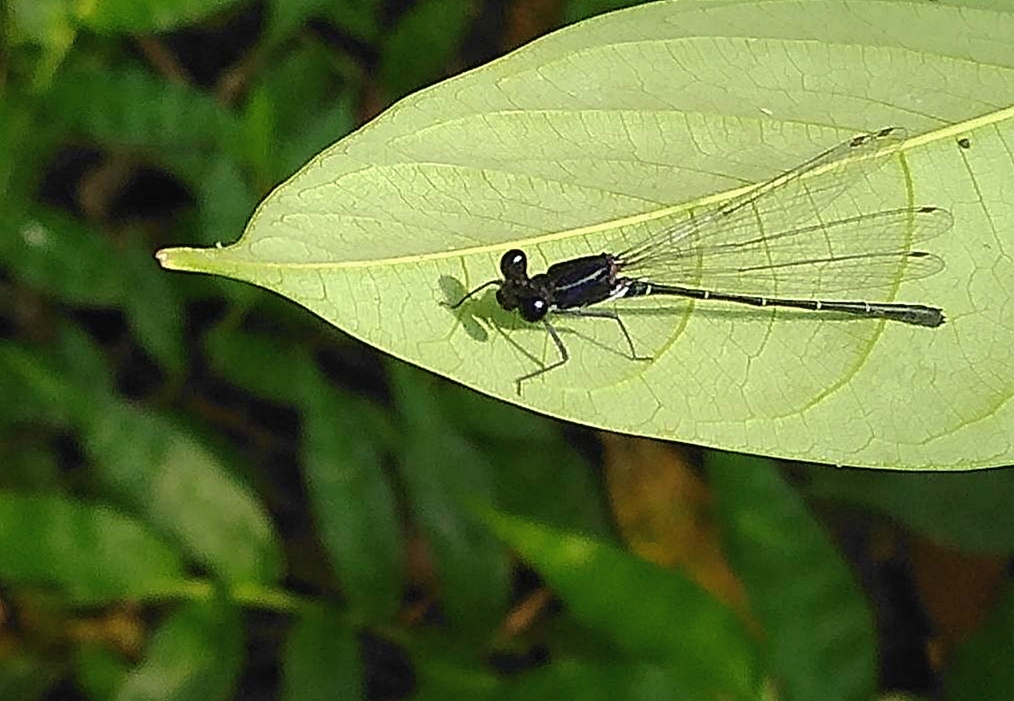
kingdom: Animalia
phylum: Arthropoda
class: Insecta
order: Odonata
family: Platycnemididae
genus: Onychargia
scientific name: Onychargia atrocyana
